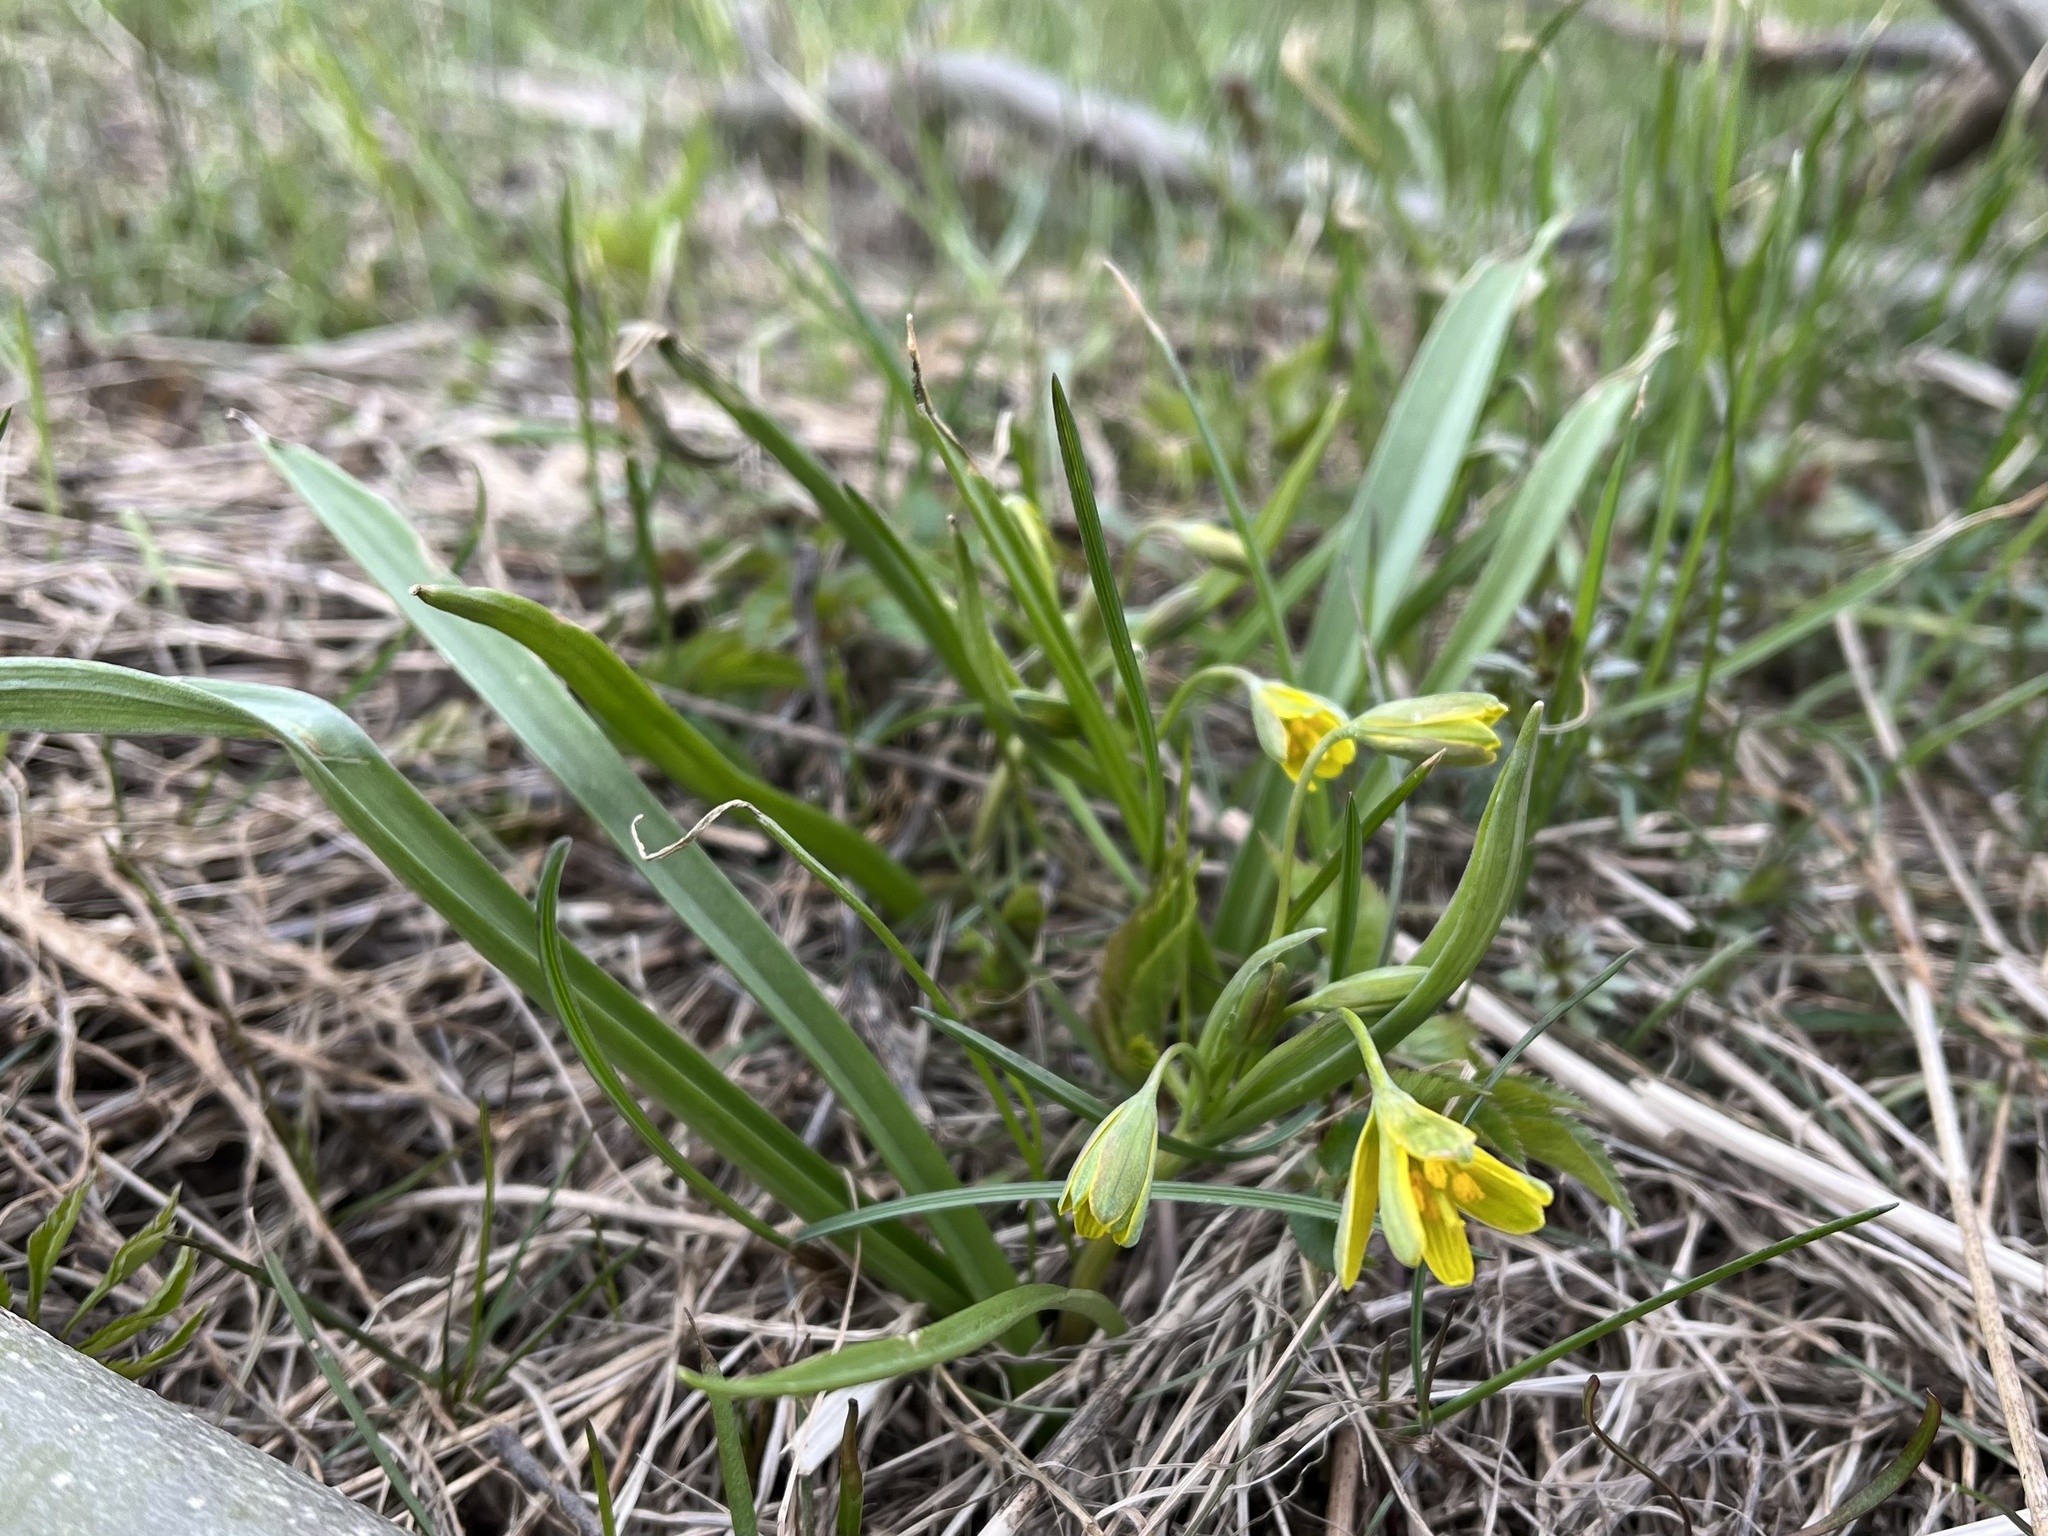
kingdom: Plantae
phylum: Tracheophyta
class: Liliopsida
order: Liliales
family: Liliaceae
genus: Gagea
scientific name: Gagea lutea
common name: Yellow star-of-bethlehem
